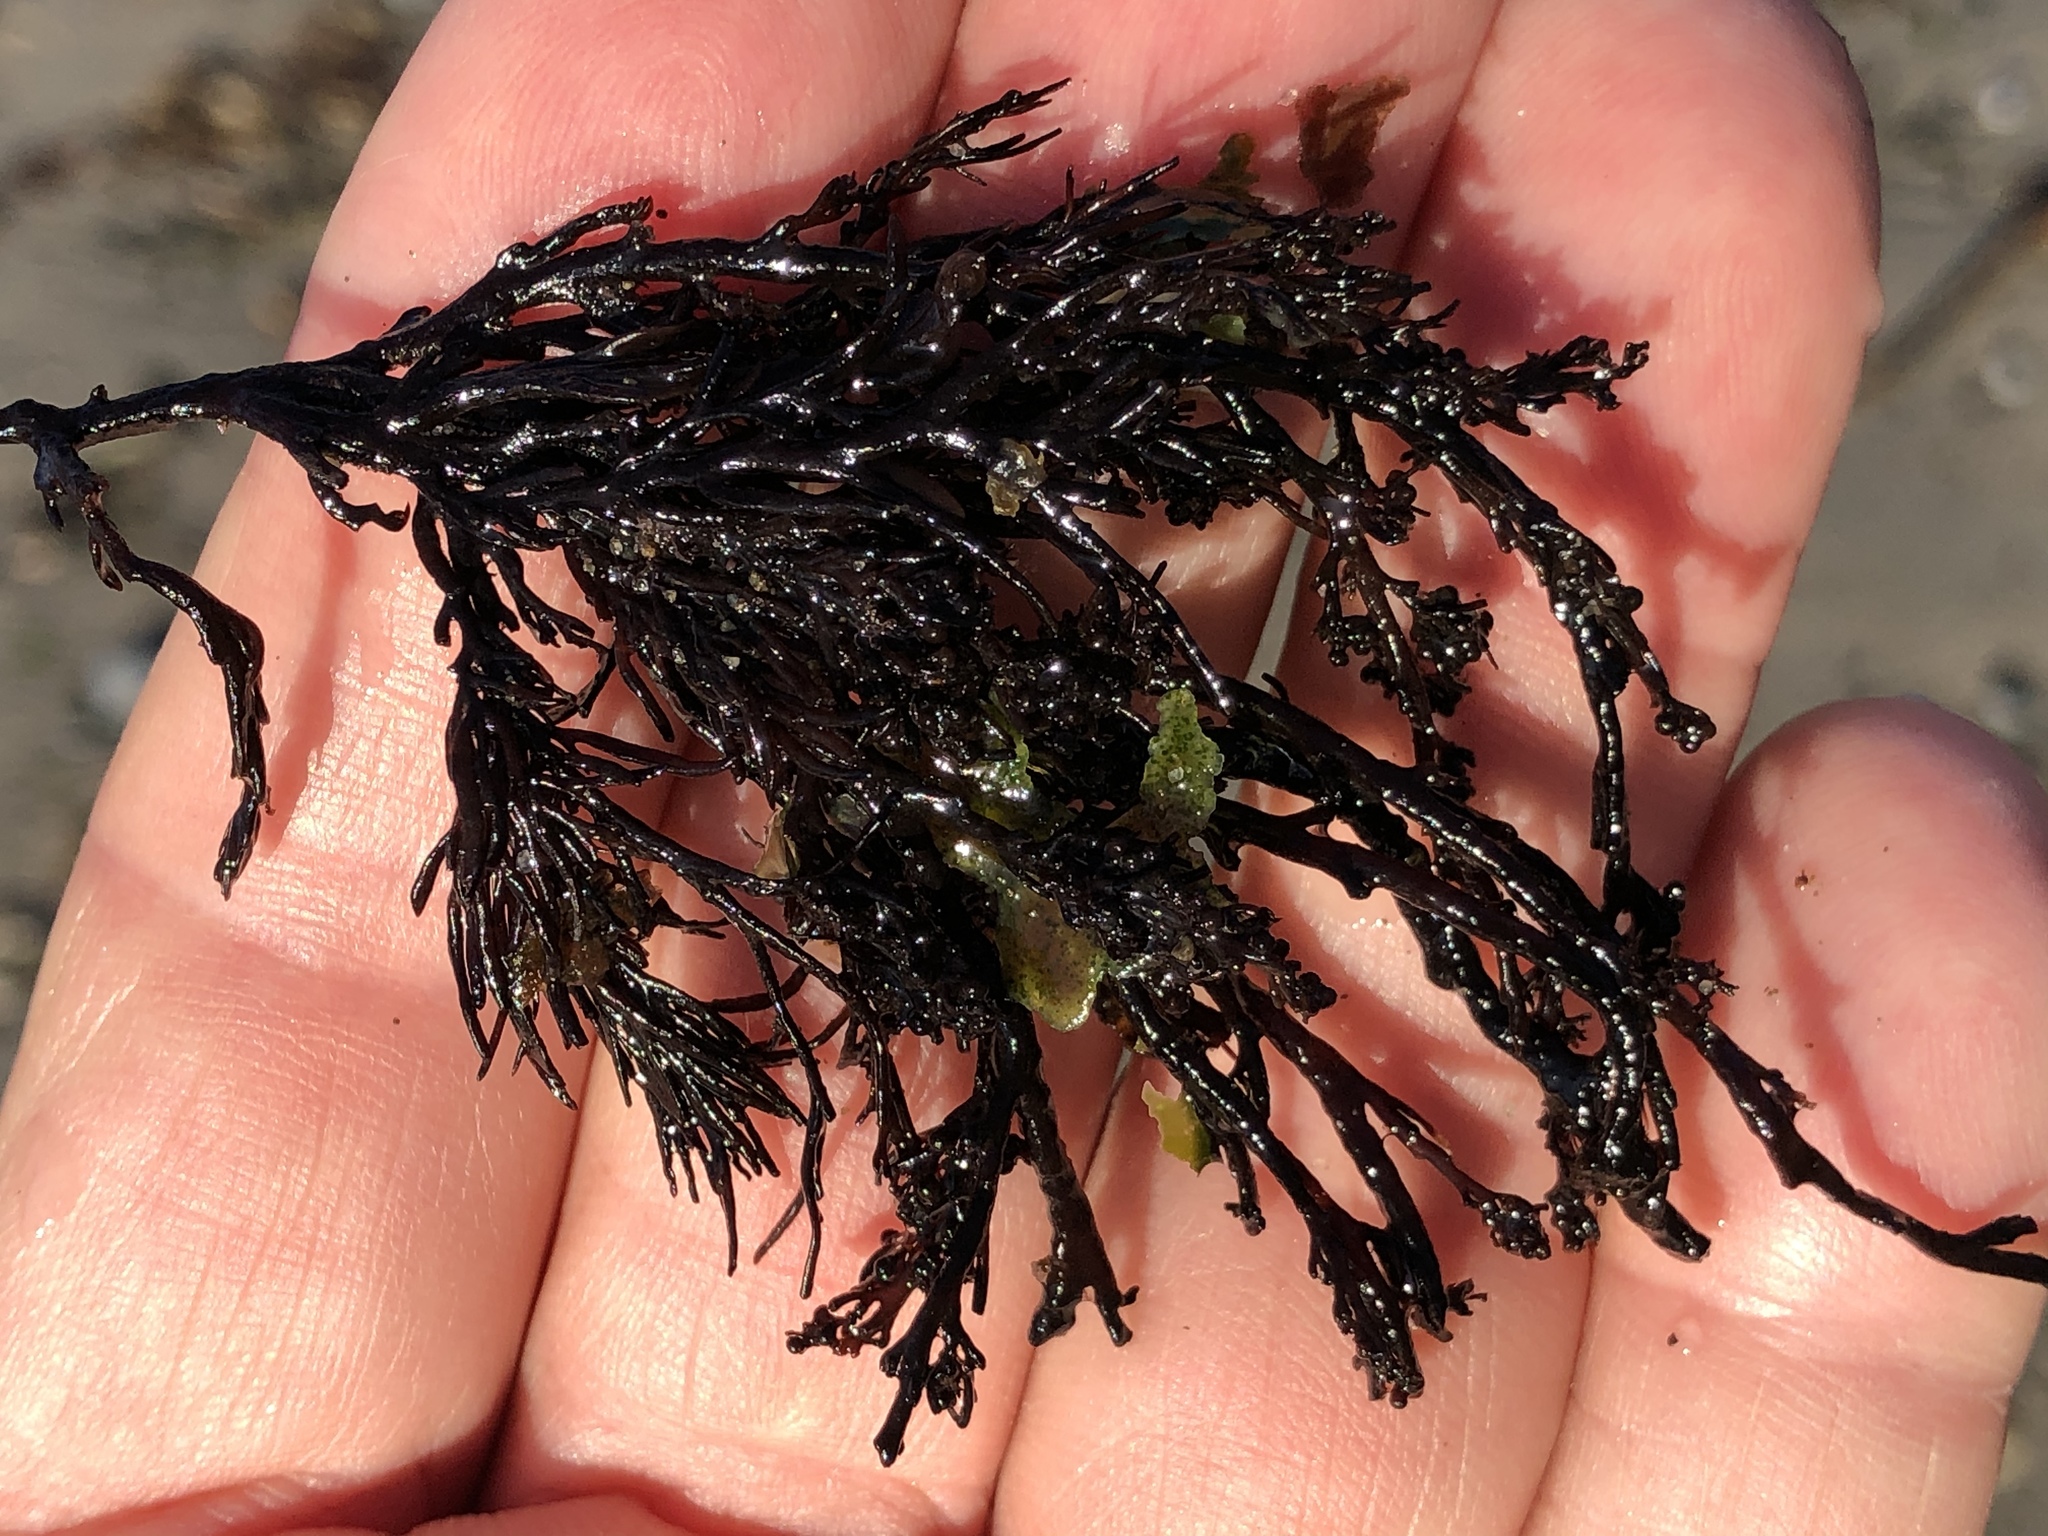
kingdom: Plantae
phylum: Rhodophyta
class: Florideophyceae
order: Ceramiales
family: Rhodomelaceae
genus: Odonthalia
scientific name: Odonthalia floccosa
